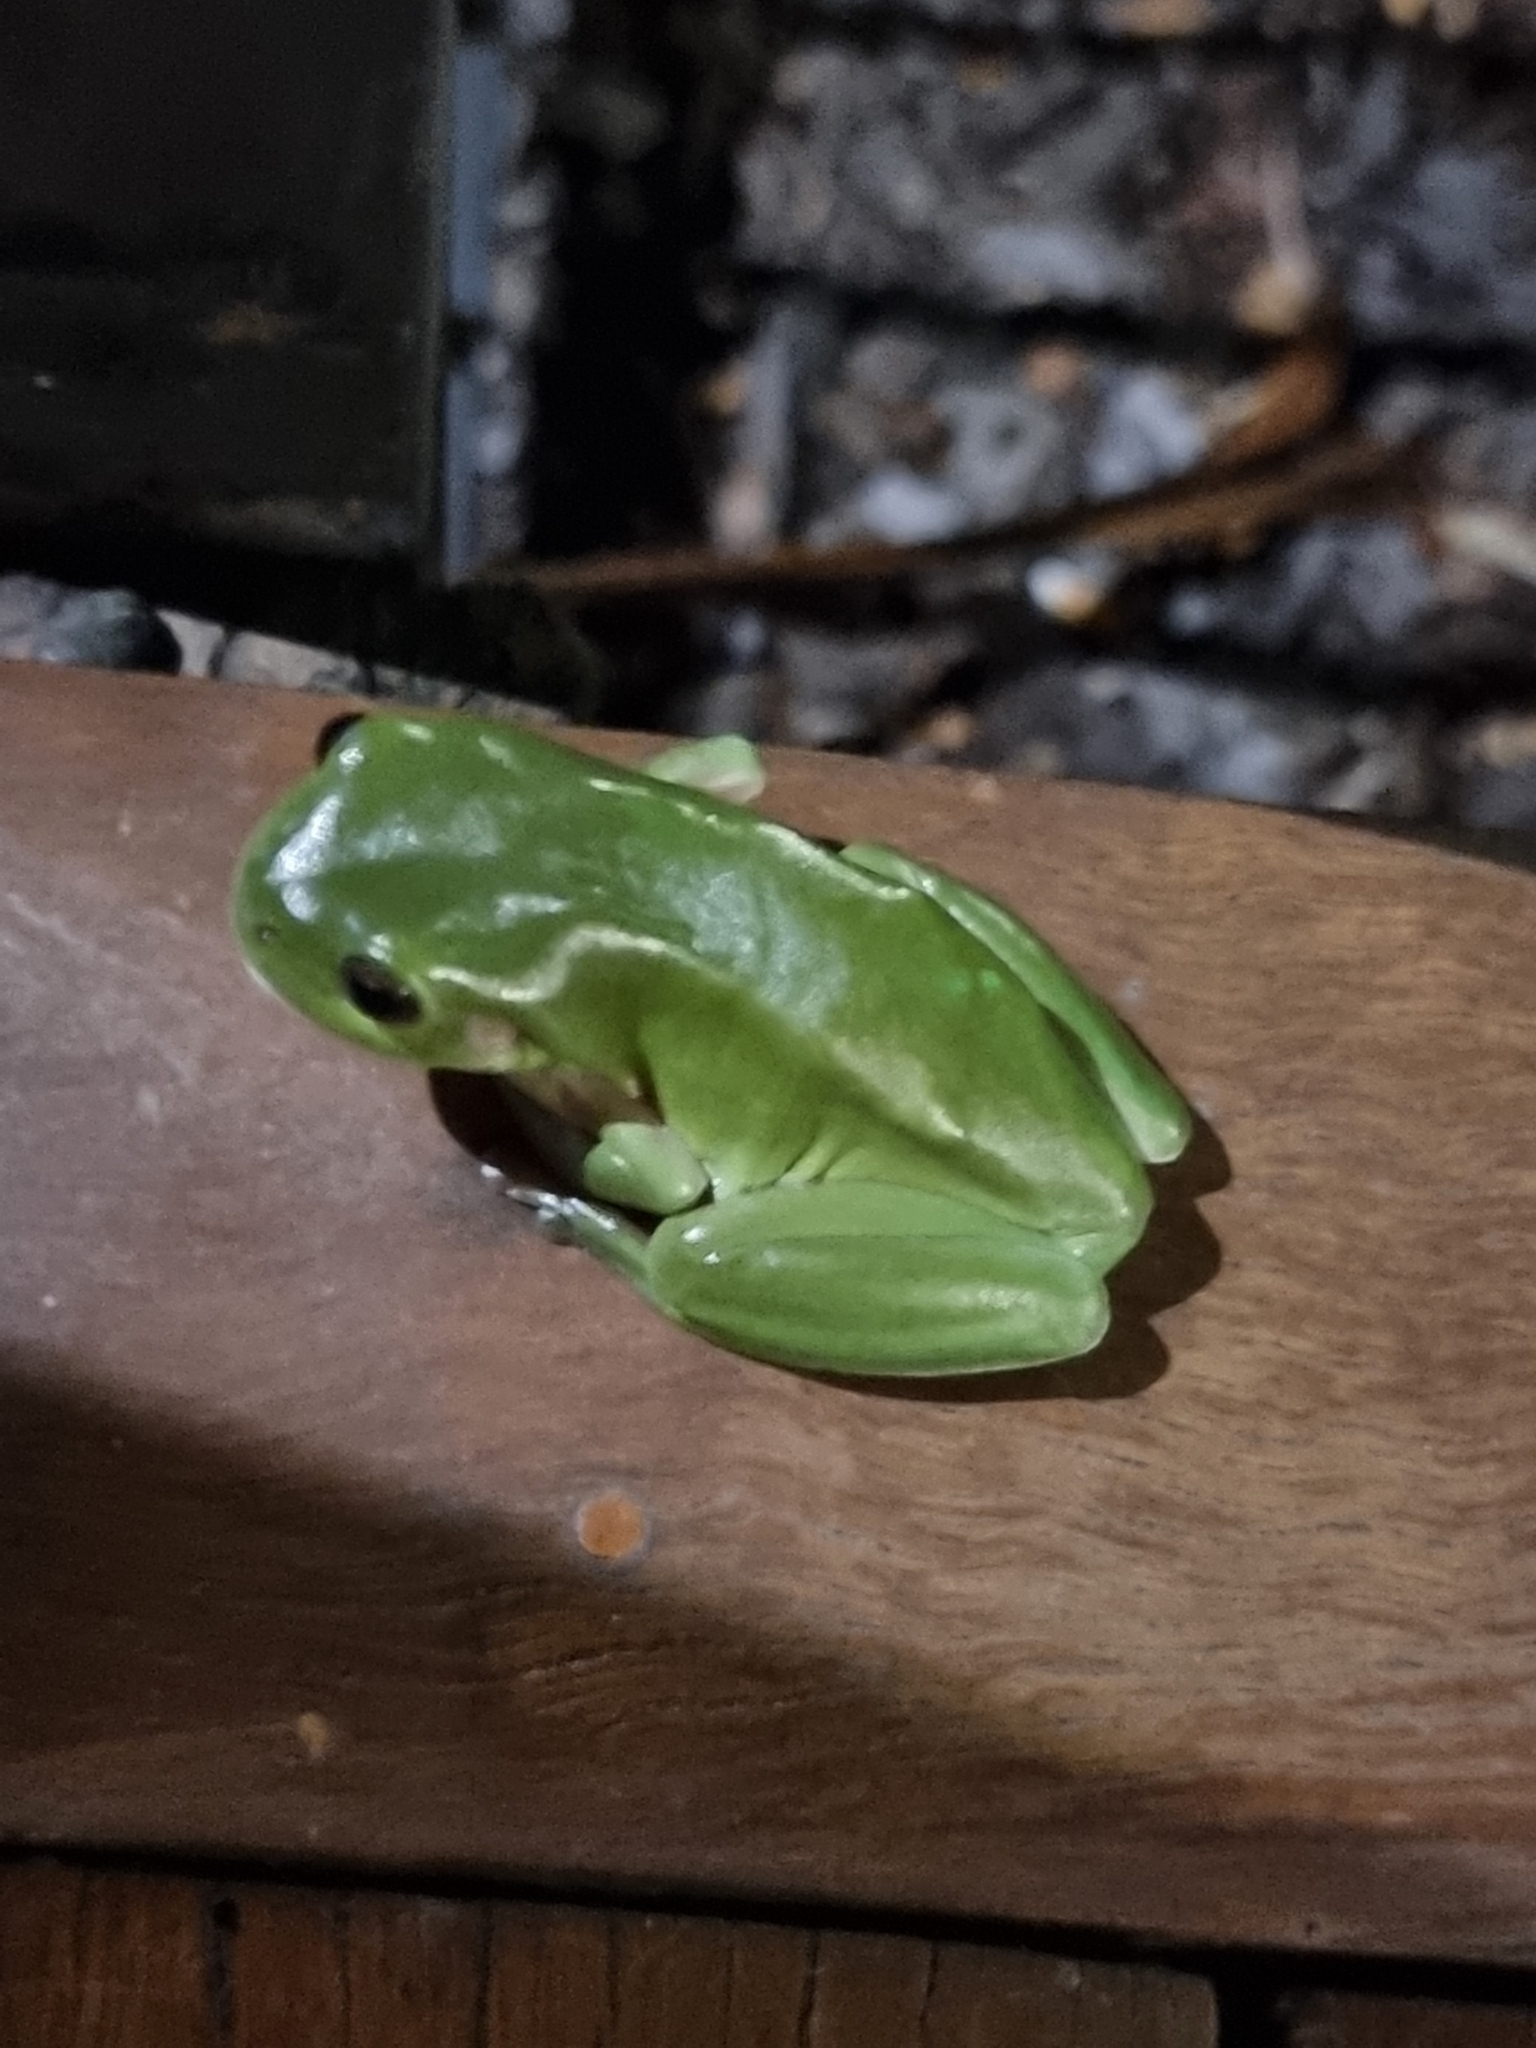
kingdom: Animalia
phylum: Chordata
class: Amphibia
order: Anura
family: Pelodryadidae
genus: Ranoidea
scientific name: Ranoidea caerulea
